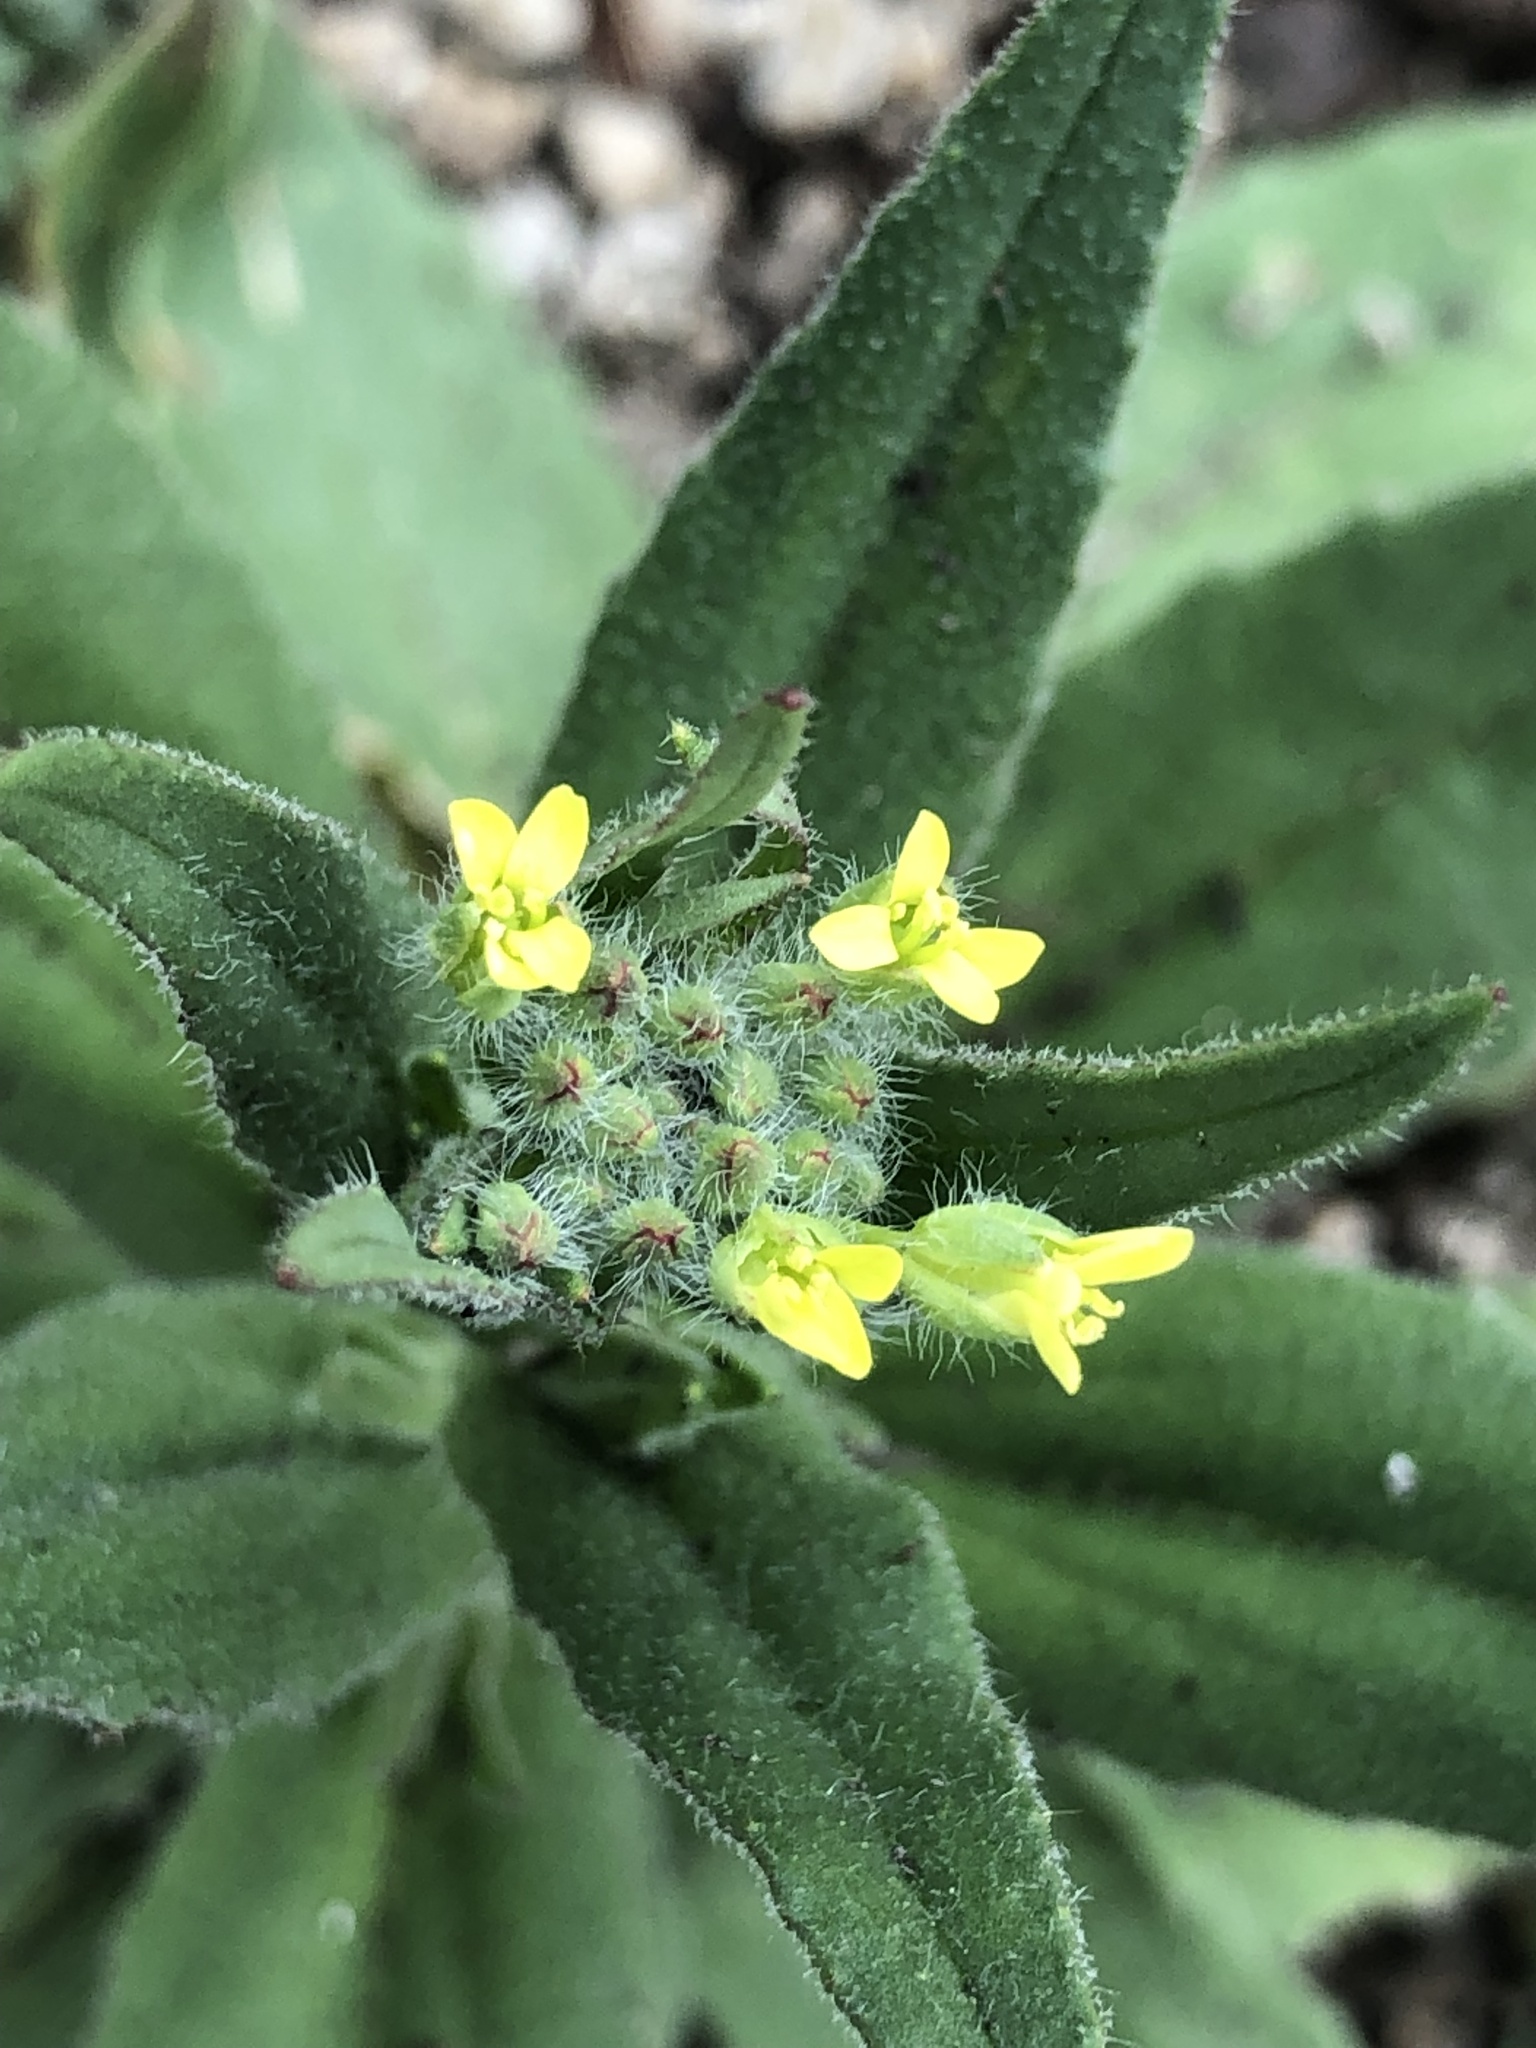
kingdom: Plantae
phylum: Tracheophyta
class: Magnoliopsida
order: Brassicales
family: Brassicaceae
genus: Camelina
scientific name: Camelina microcarpa
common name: Lesser gold-of-pleasure
